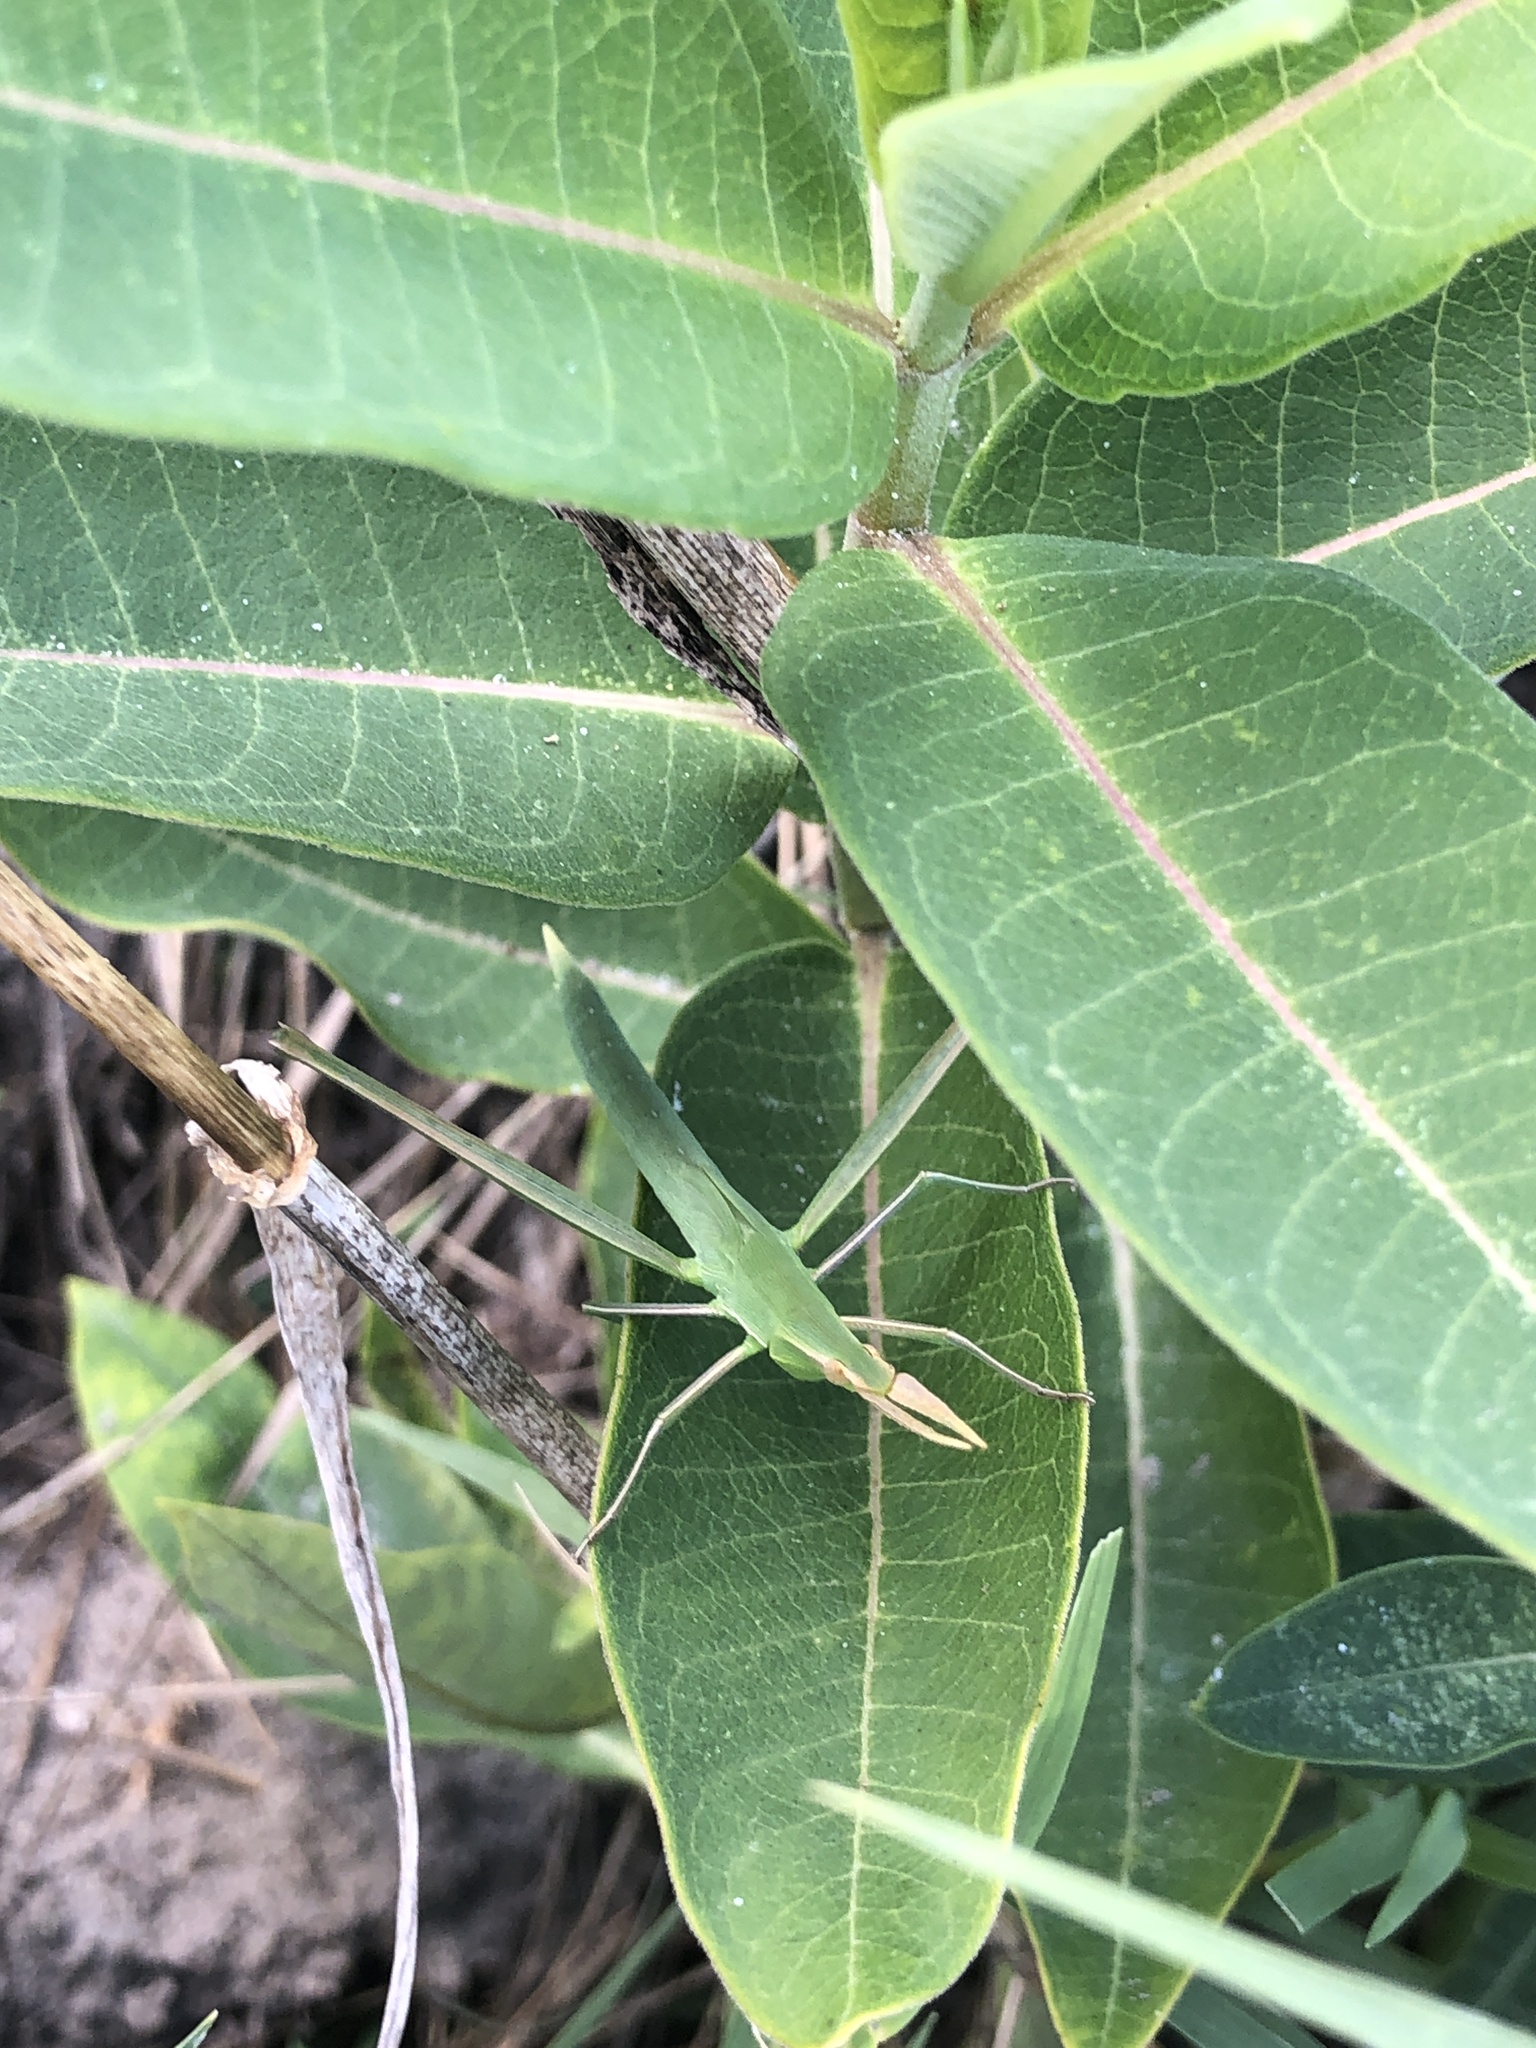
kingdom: Animalia
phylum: Arthropoda
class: Insecta
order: Orthoptera
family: Acrididae
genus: Acrida
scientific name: Acrida ungarica
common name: Common cone-headed grasshopper
